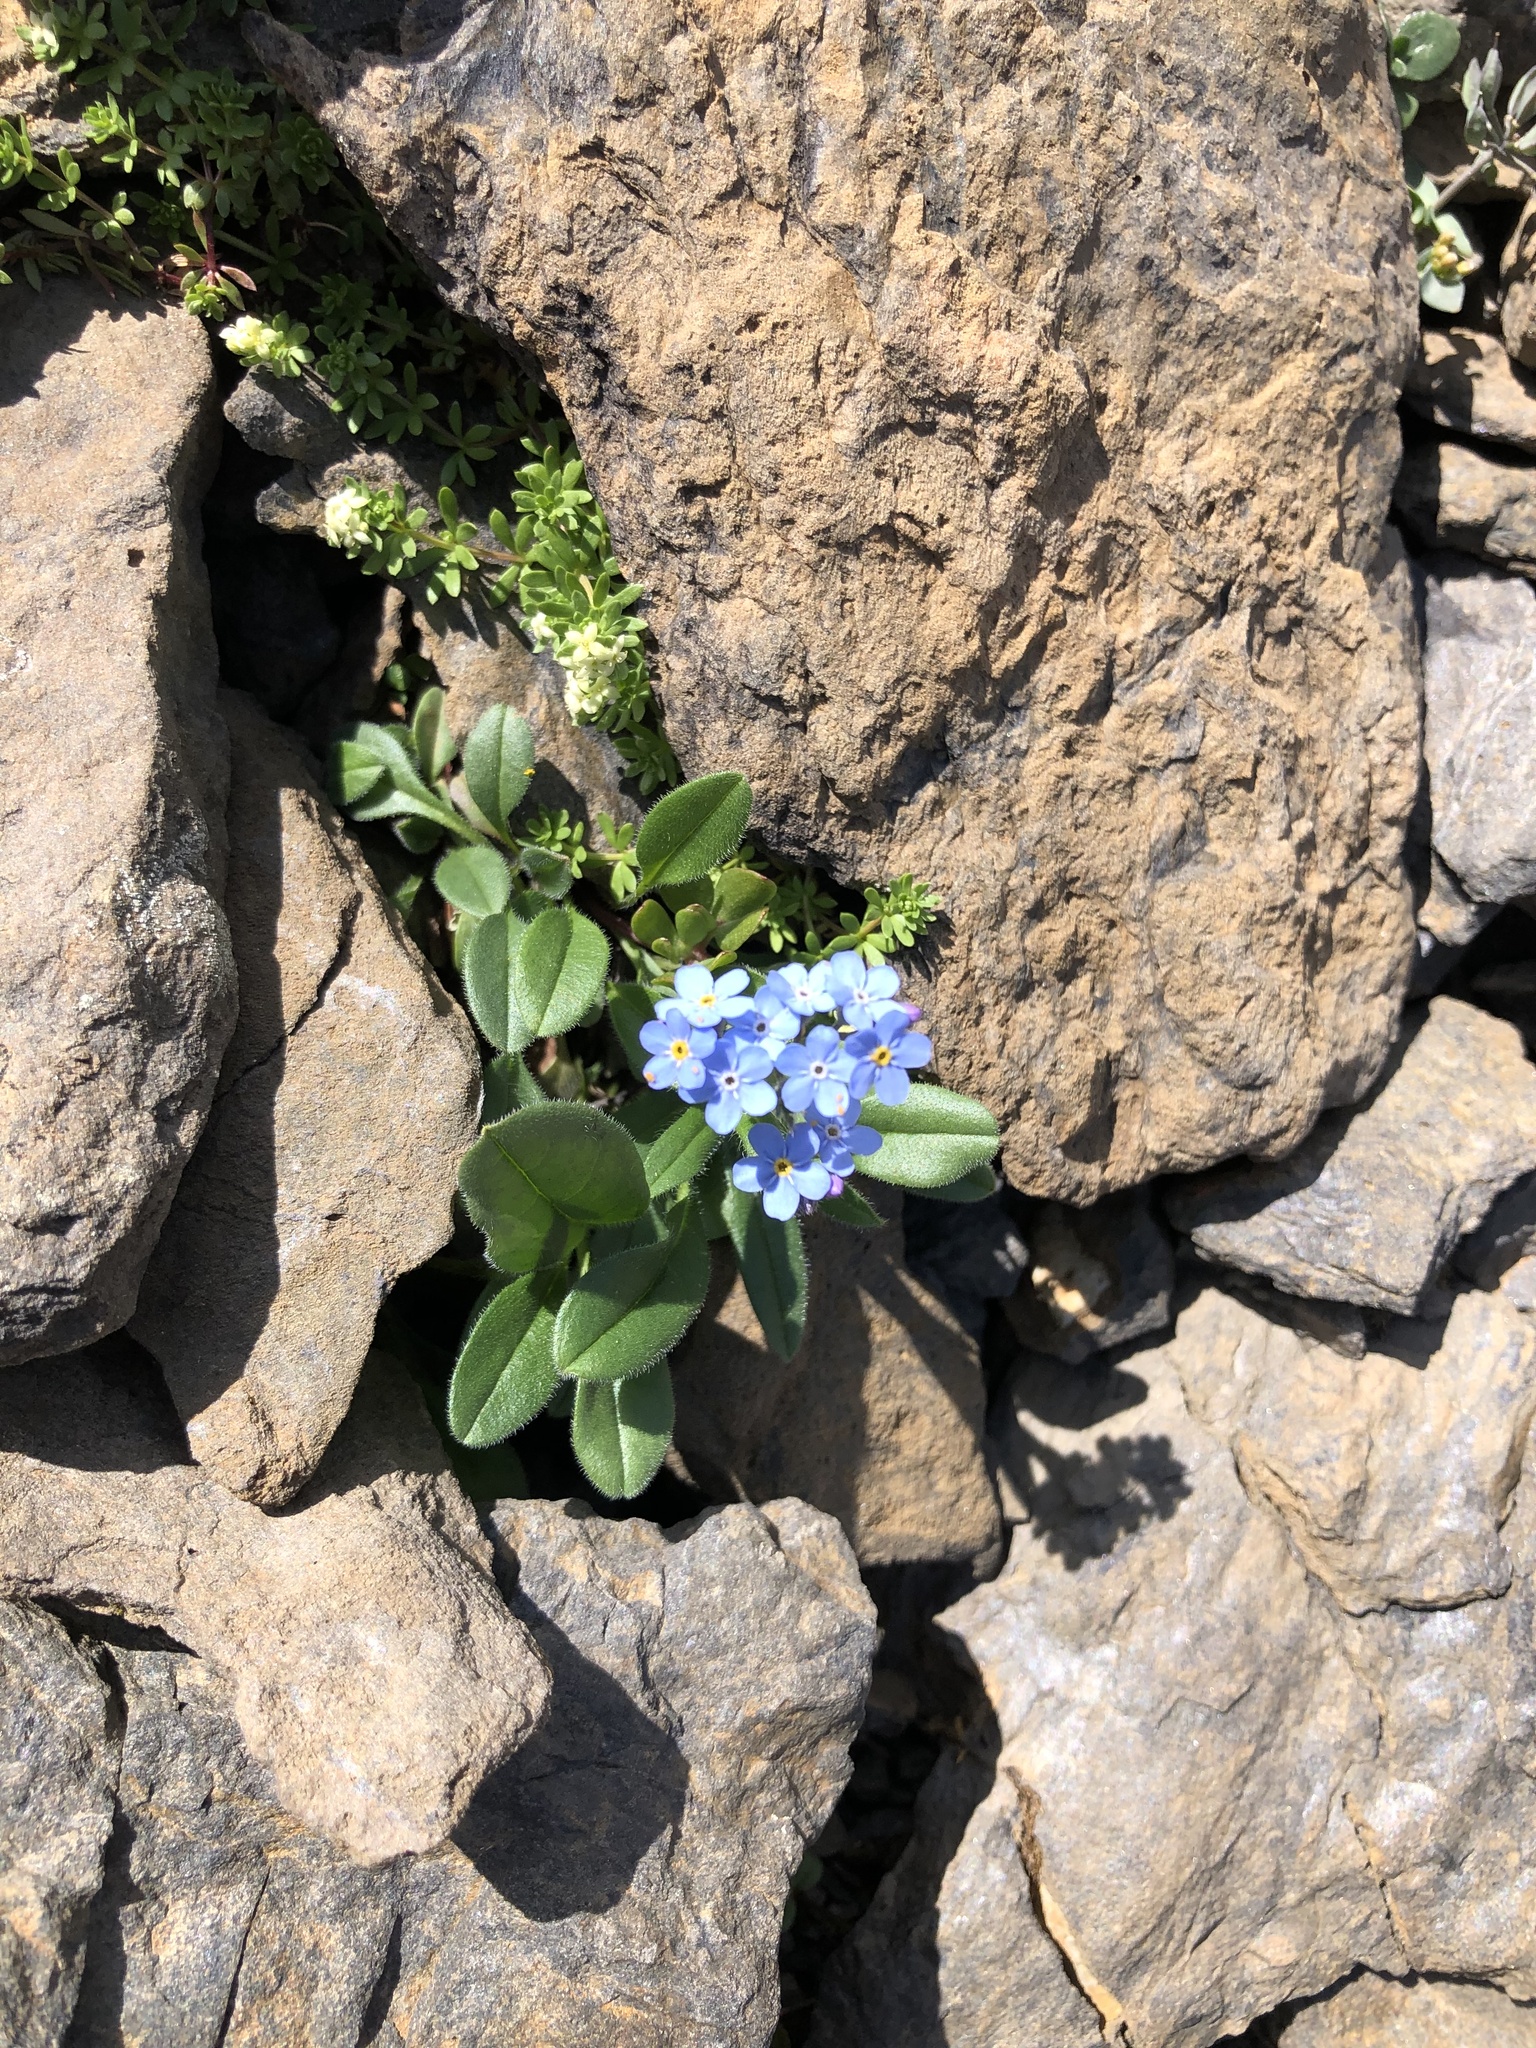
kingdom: Plantae
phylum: Tracheophyta
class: Magnoliopsida
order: Boraginales
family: Boraginaceae
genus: Myosotis
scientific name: Myosotis alpestris
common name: Alpine forget-me-not
